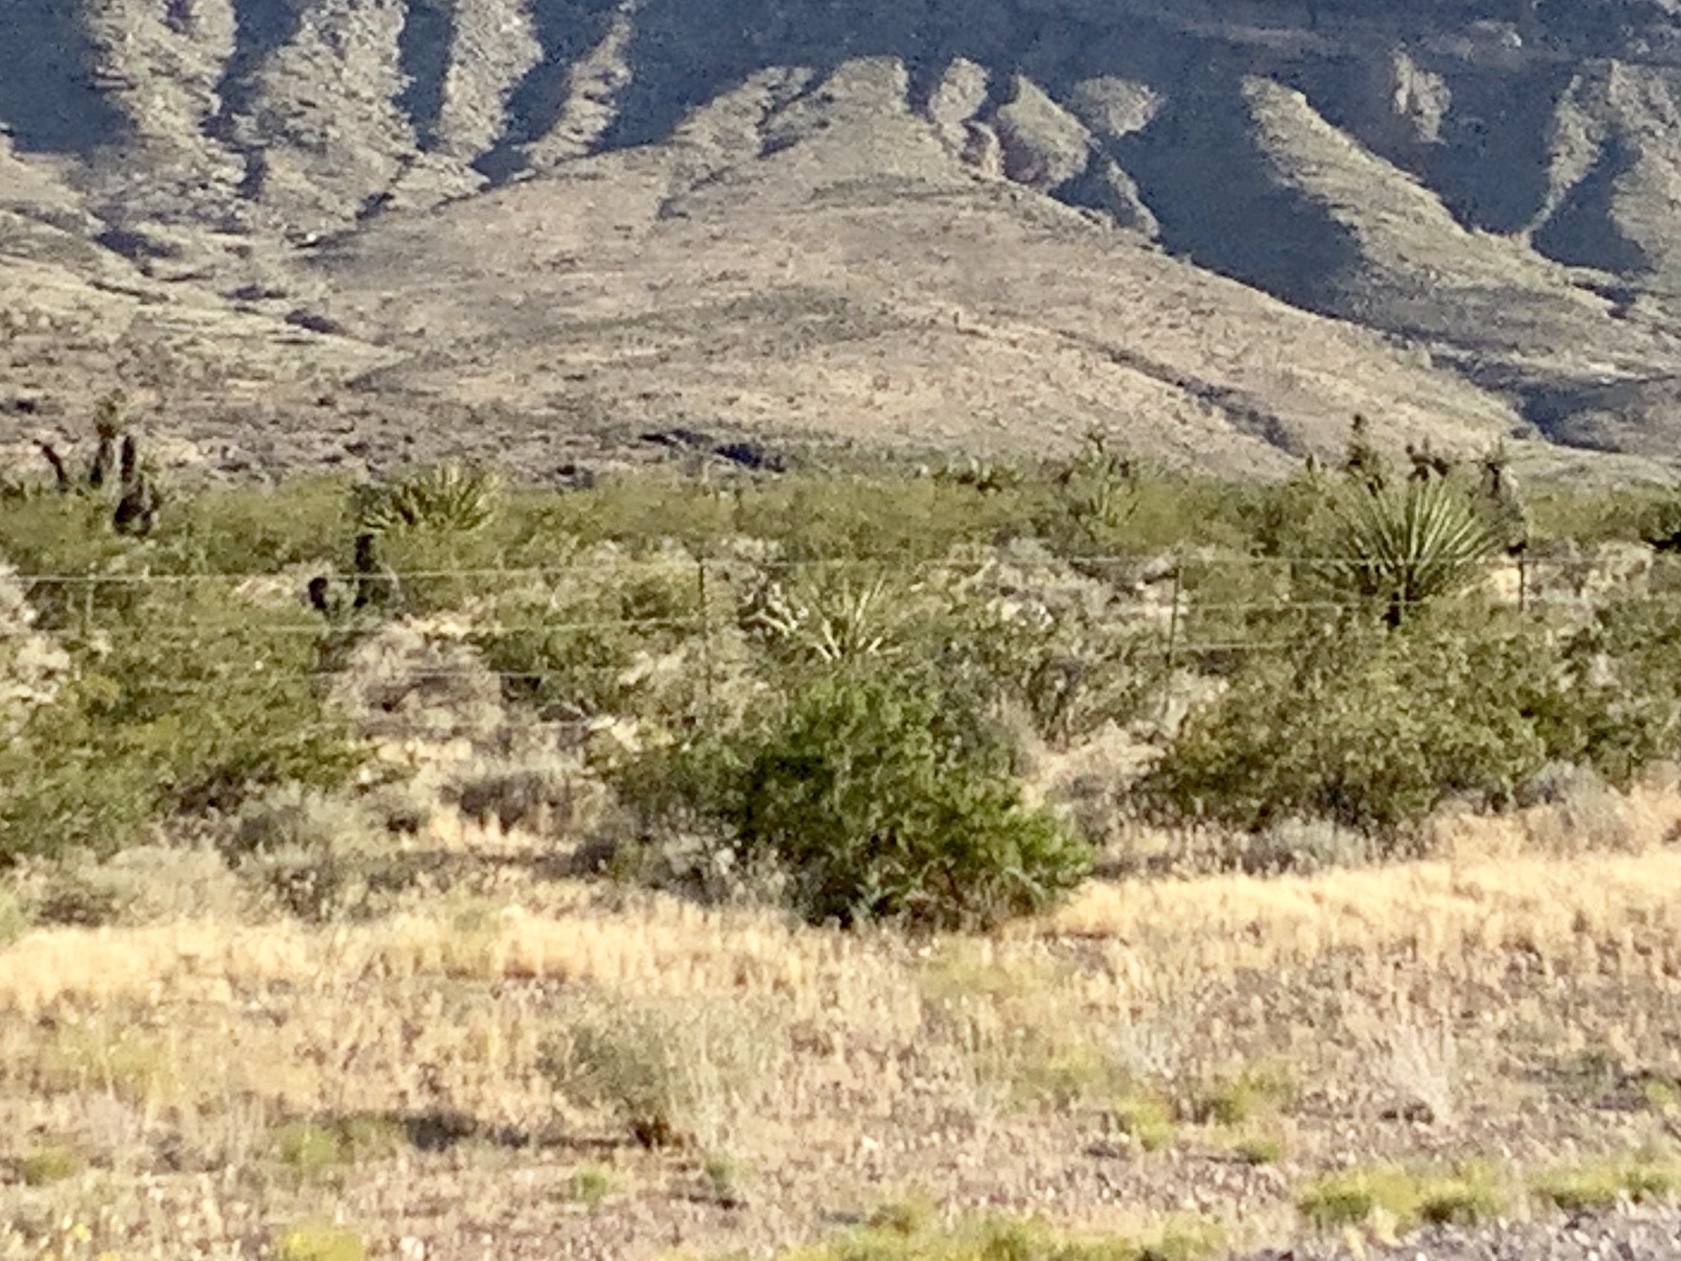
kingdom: Plantae
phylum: Tracheophyta
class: Magnoliopsida
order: Zygophyllales
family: Zygophyllaceae
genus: Larrea
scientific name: Larrea tridentata
